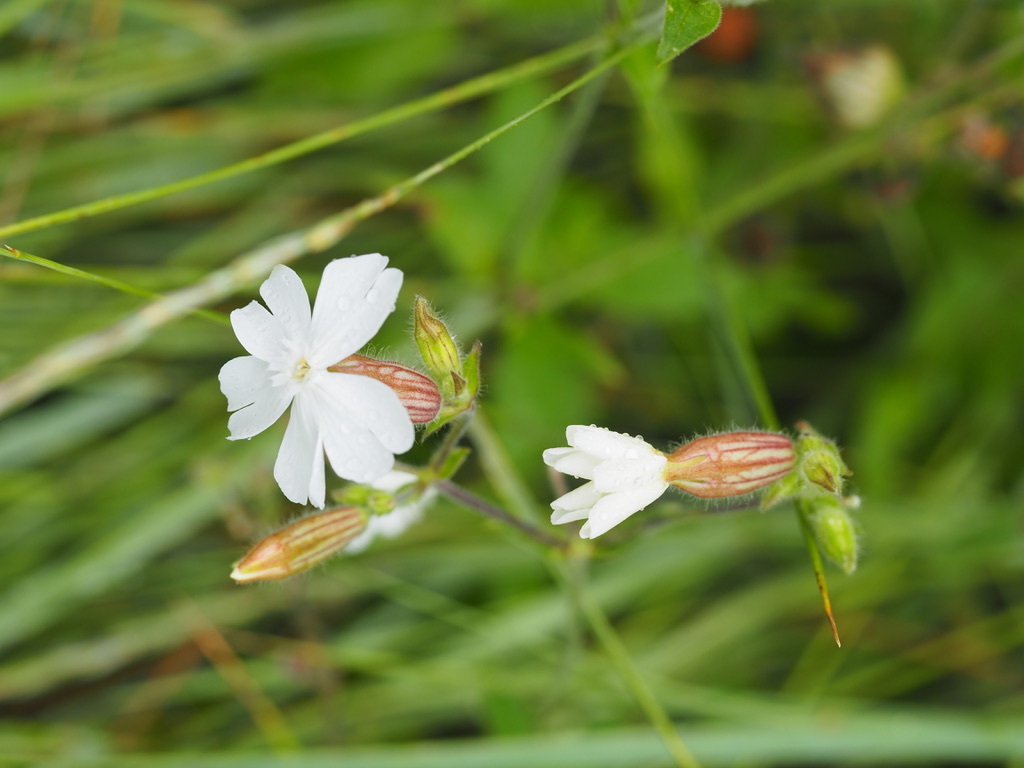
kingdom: Plantae
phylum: Tracheophyta
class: Magnoliopsida
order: Caryophyllales
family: Caryophyllaceae
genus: Silene
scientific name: Silene latifolia
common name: White campion
